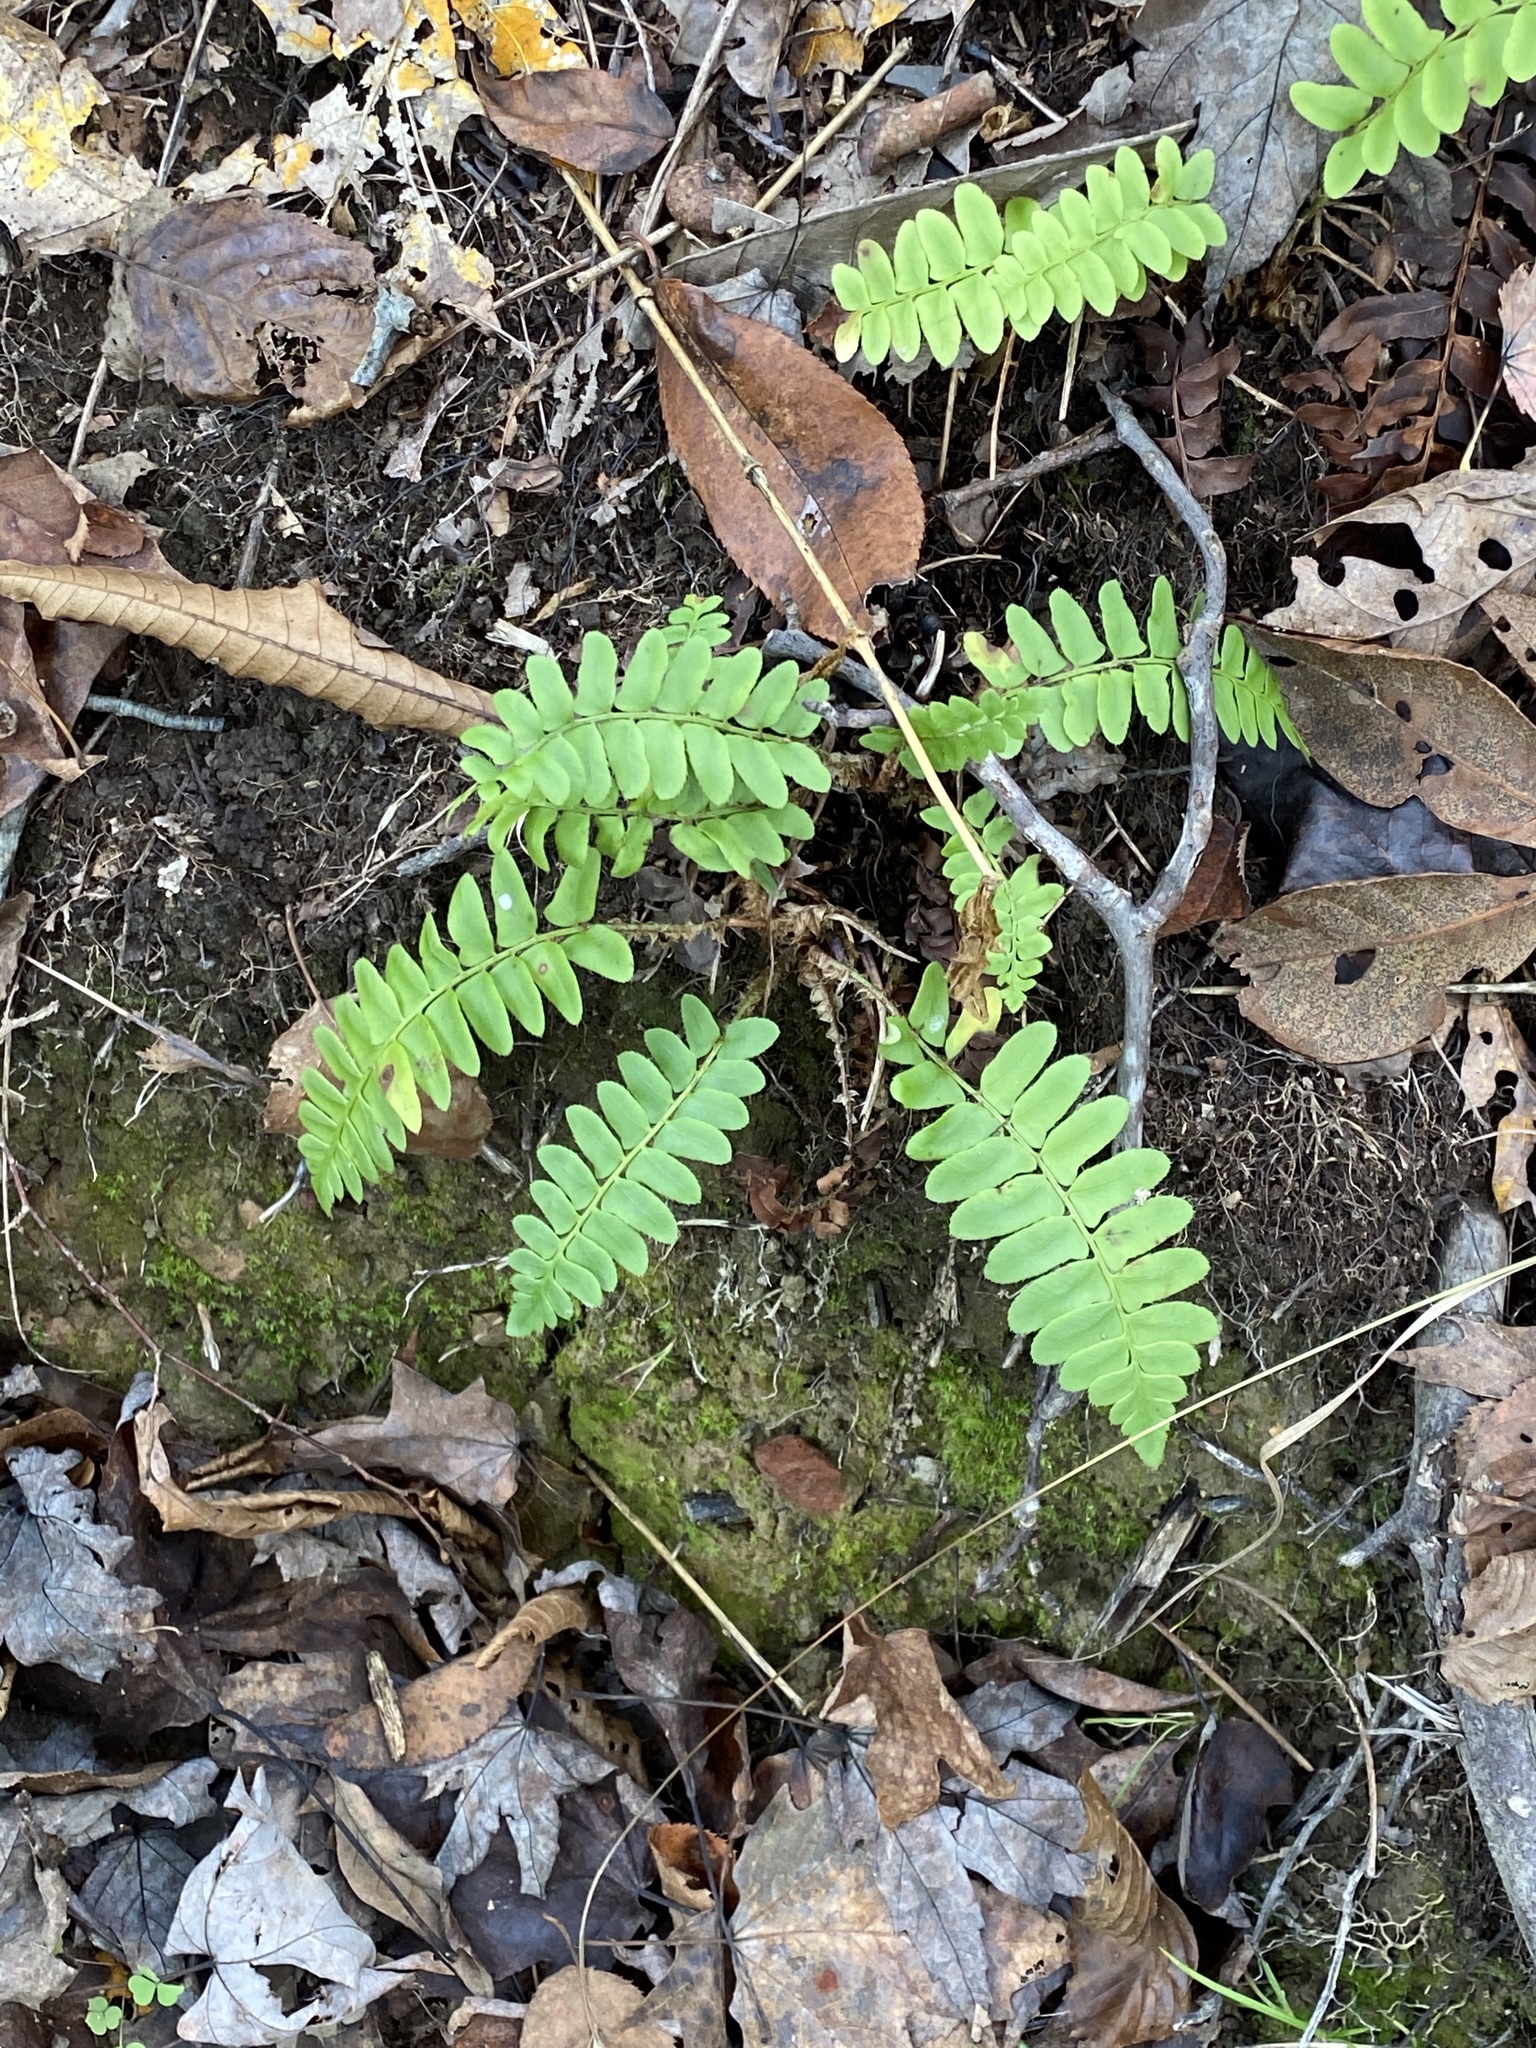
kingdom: Plantae
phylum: Tracheophyta
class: Polypodiopsida
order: Polypodiales
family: Dryopteridaceae
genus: Polystichum
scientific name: Polystichum acrostichoides
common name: Christmas fern
